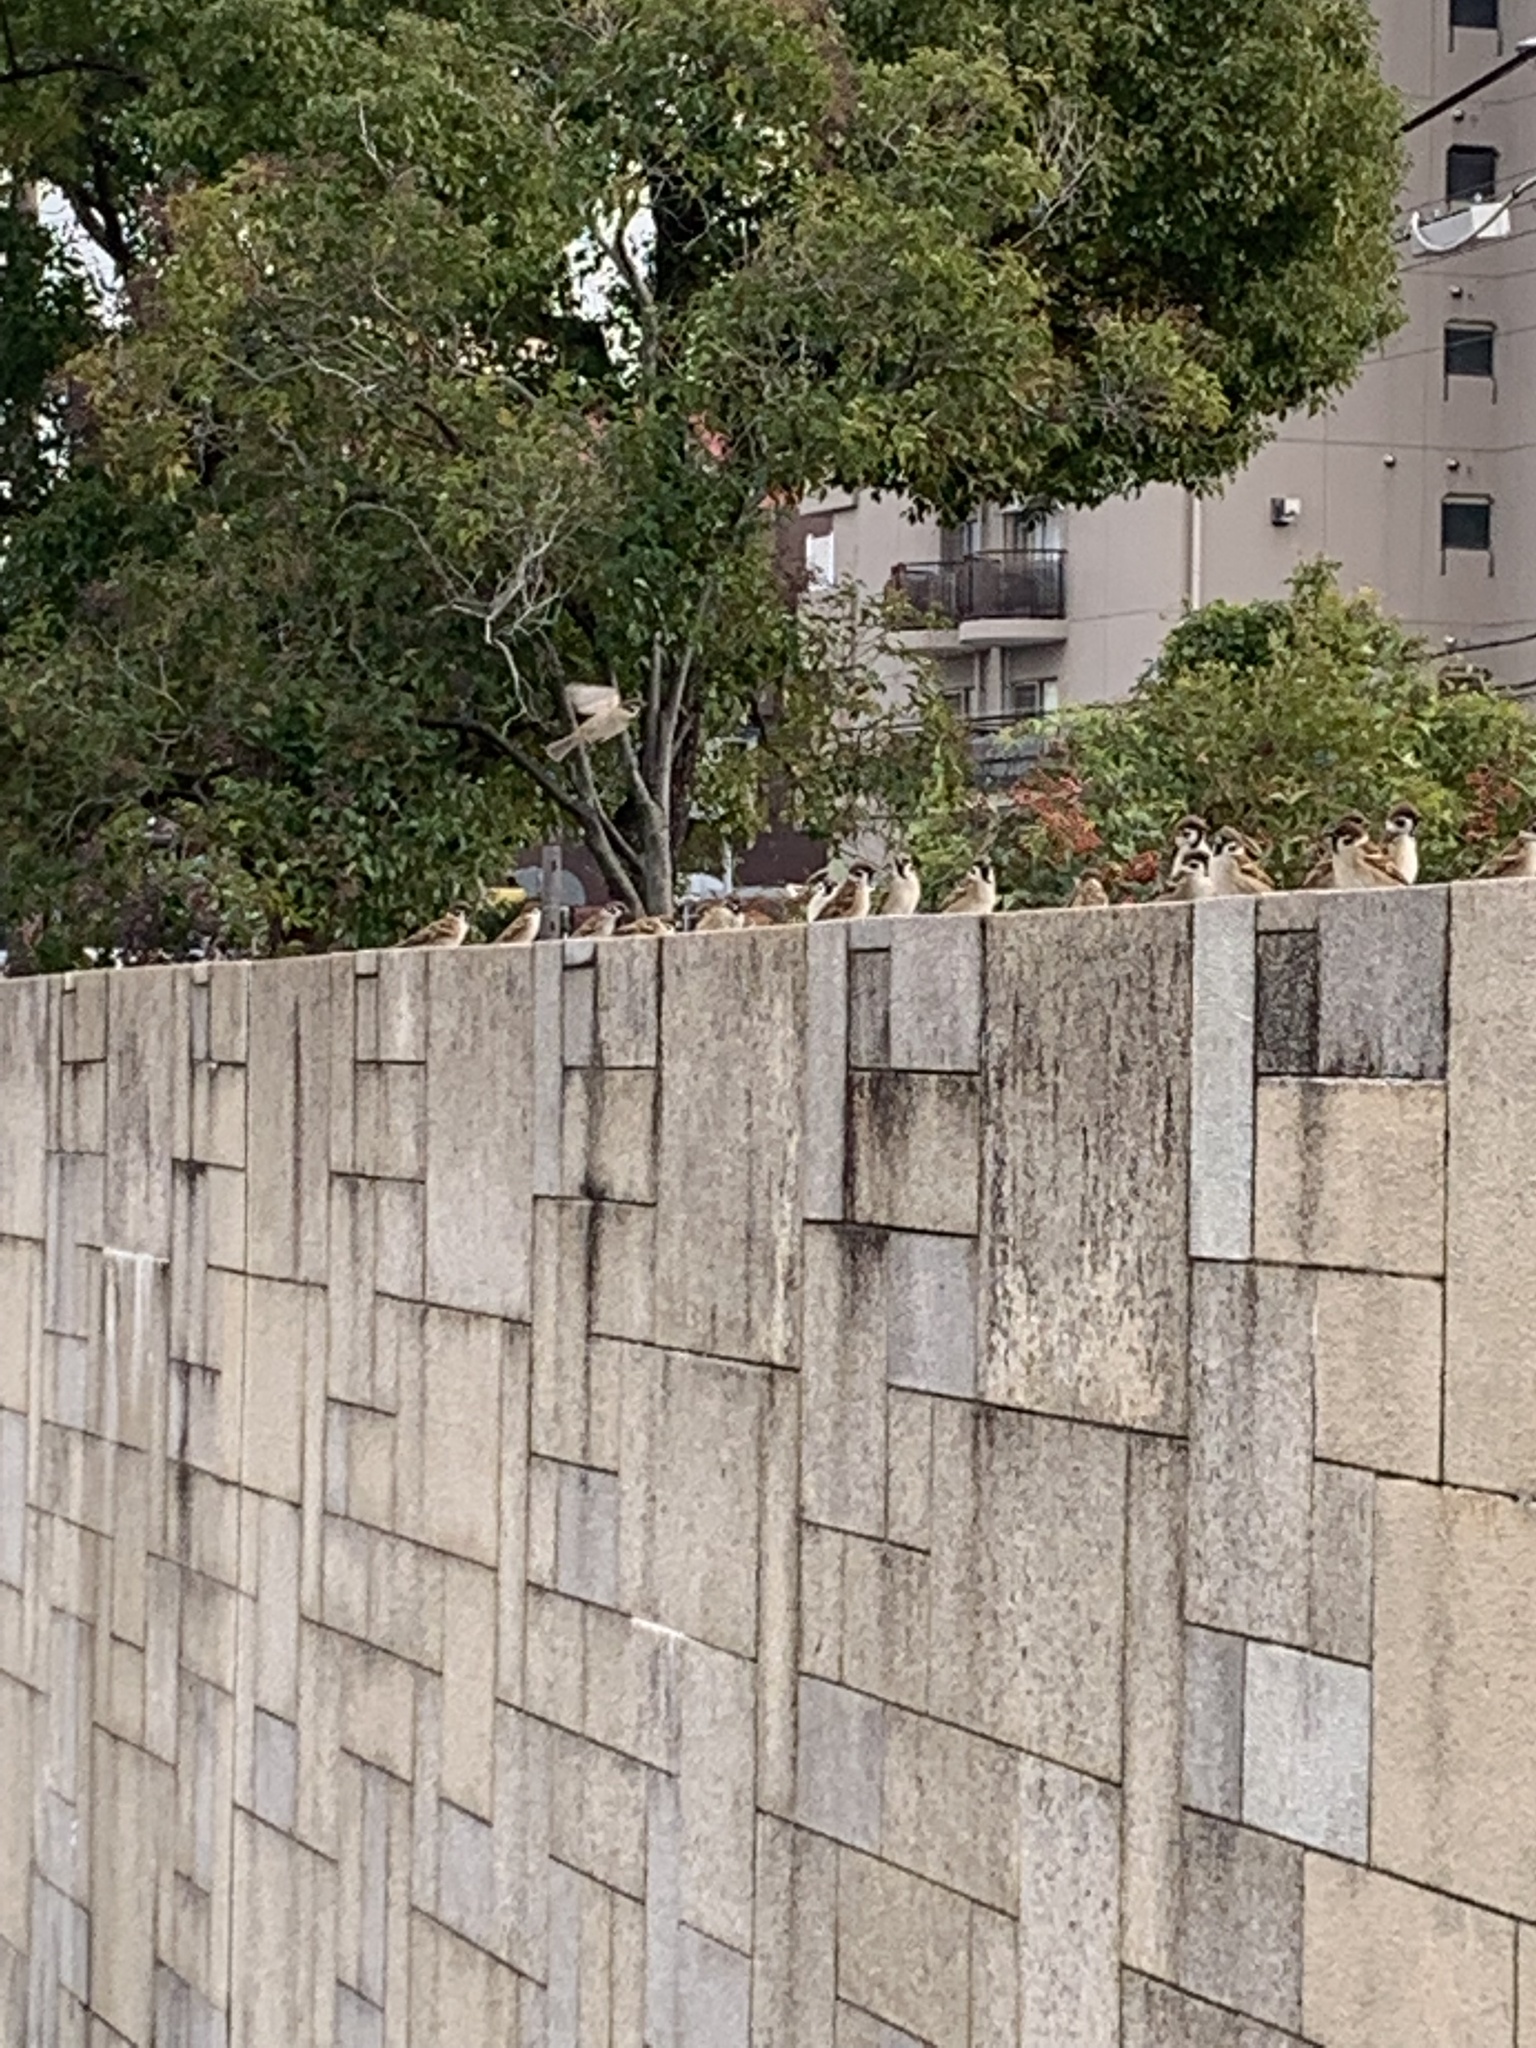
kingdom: Animalia
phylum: Chordata
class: Aves
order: Passeriformes
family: Passeridae
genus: Passer
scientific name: Passer montanus
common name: Eurasian tree sparrow
